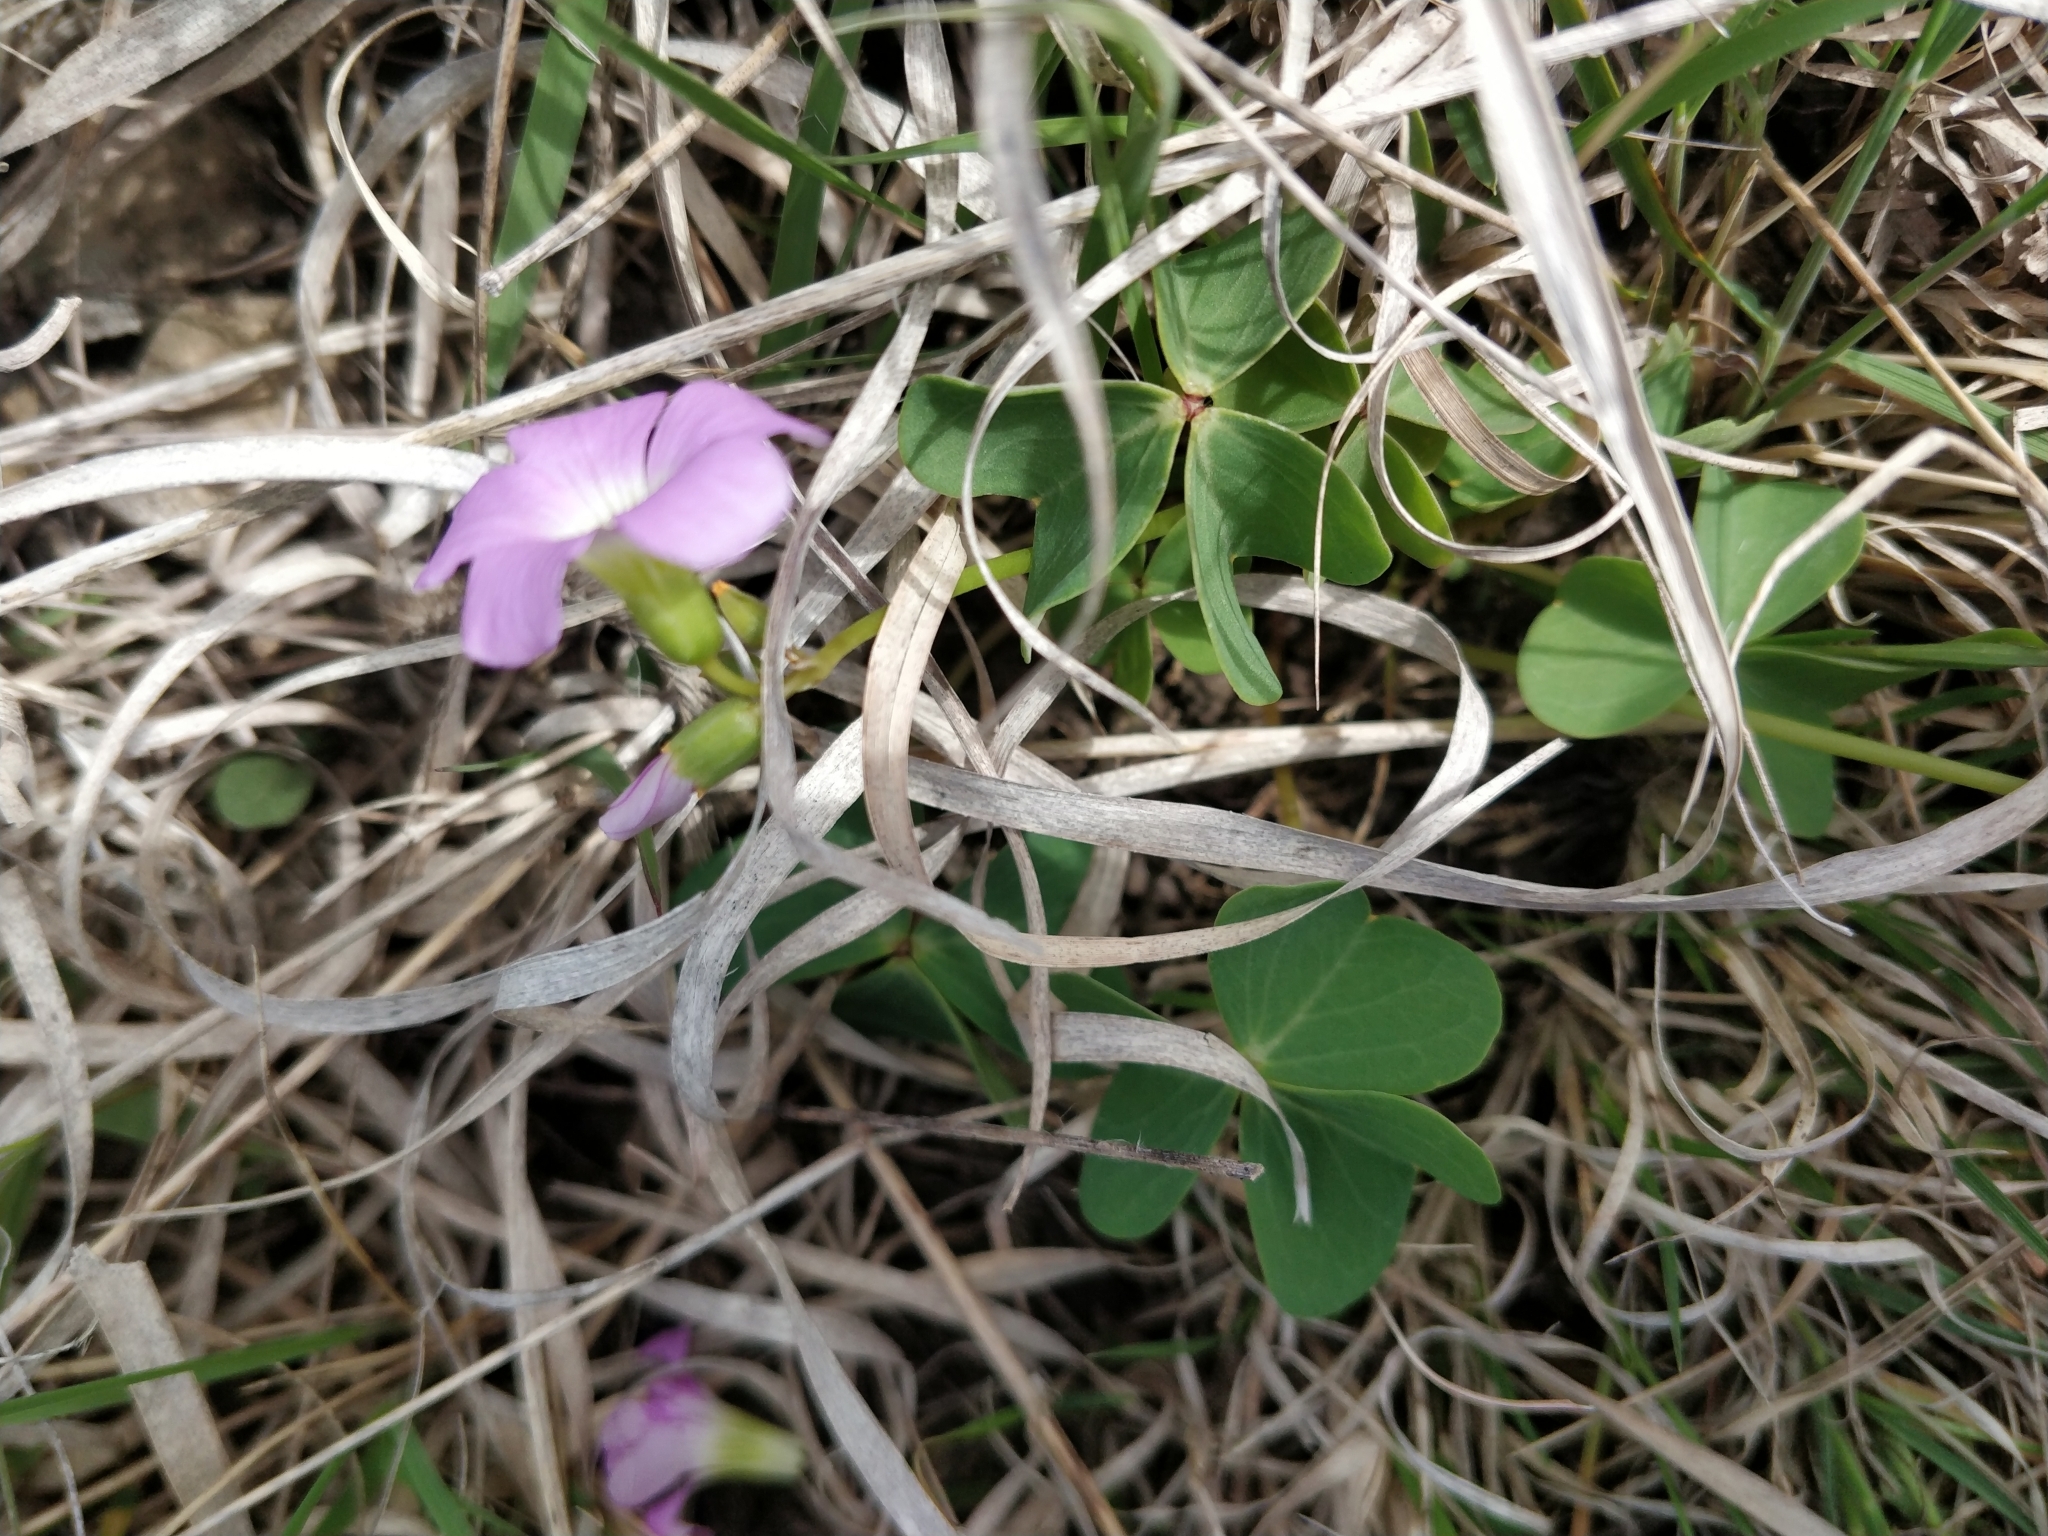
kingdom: Plantae
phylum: Tracheophyta
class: Magnoliopsida
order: Oxalidales
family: Oxalidaceae
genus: Oxalis
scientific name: Oxalis violacea
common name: Violet wood-sorrel
